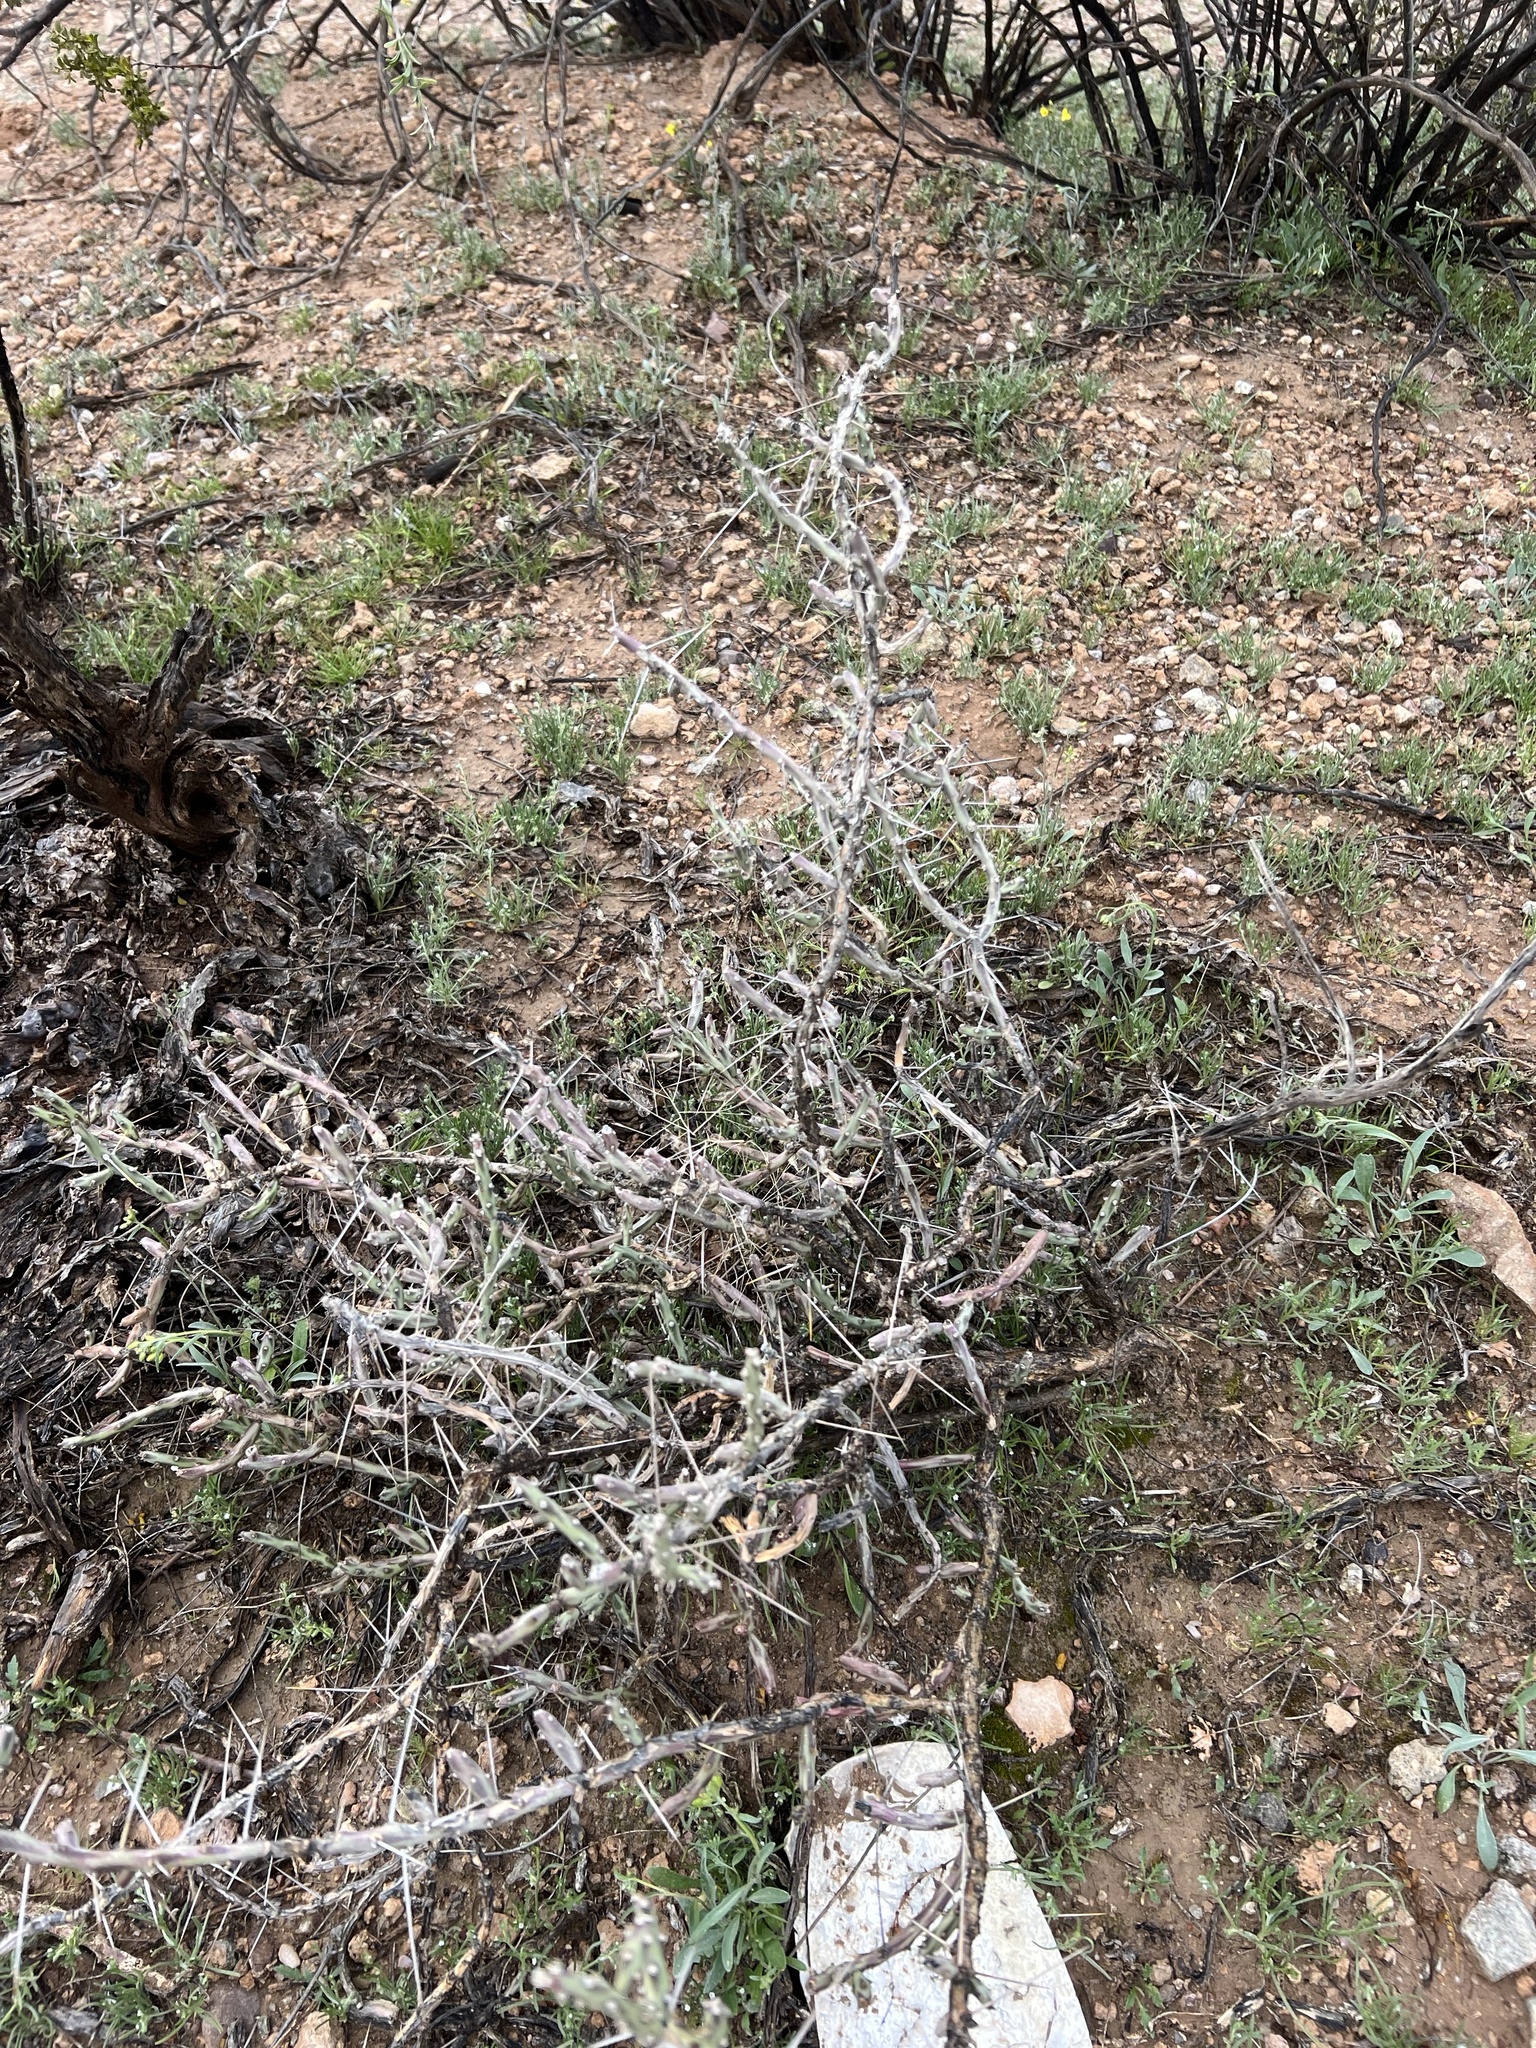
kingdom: Plantae
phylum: Tracheophyta
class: Magnoliopsida
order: Caryophyllales
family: Cactaceae
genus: Cylindropuntia
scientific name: Cylindropuntia leptocaulis
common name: Christmas cactus
